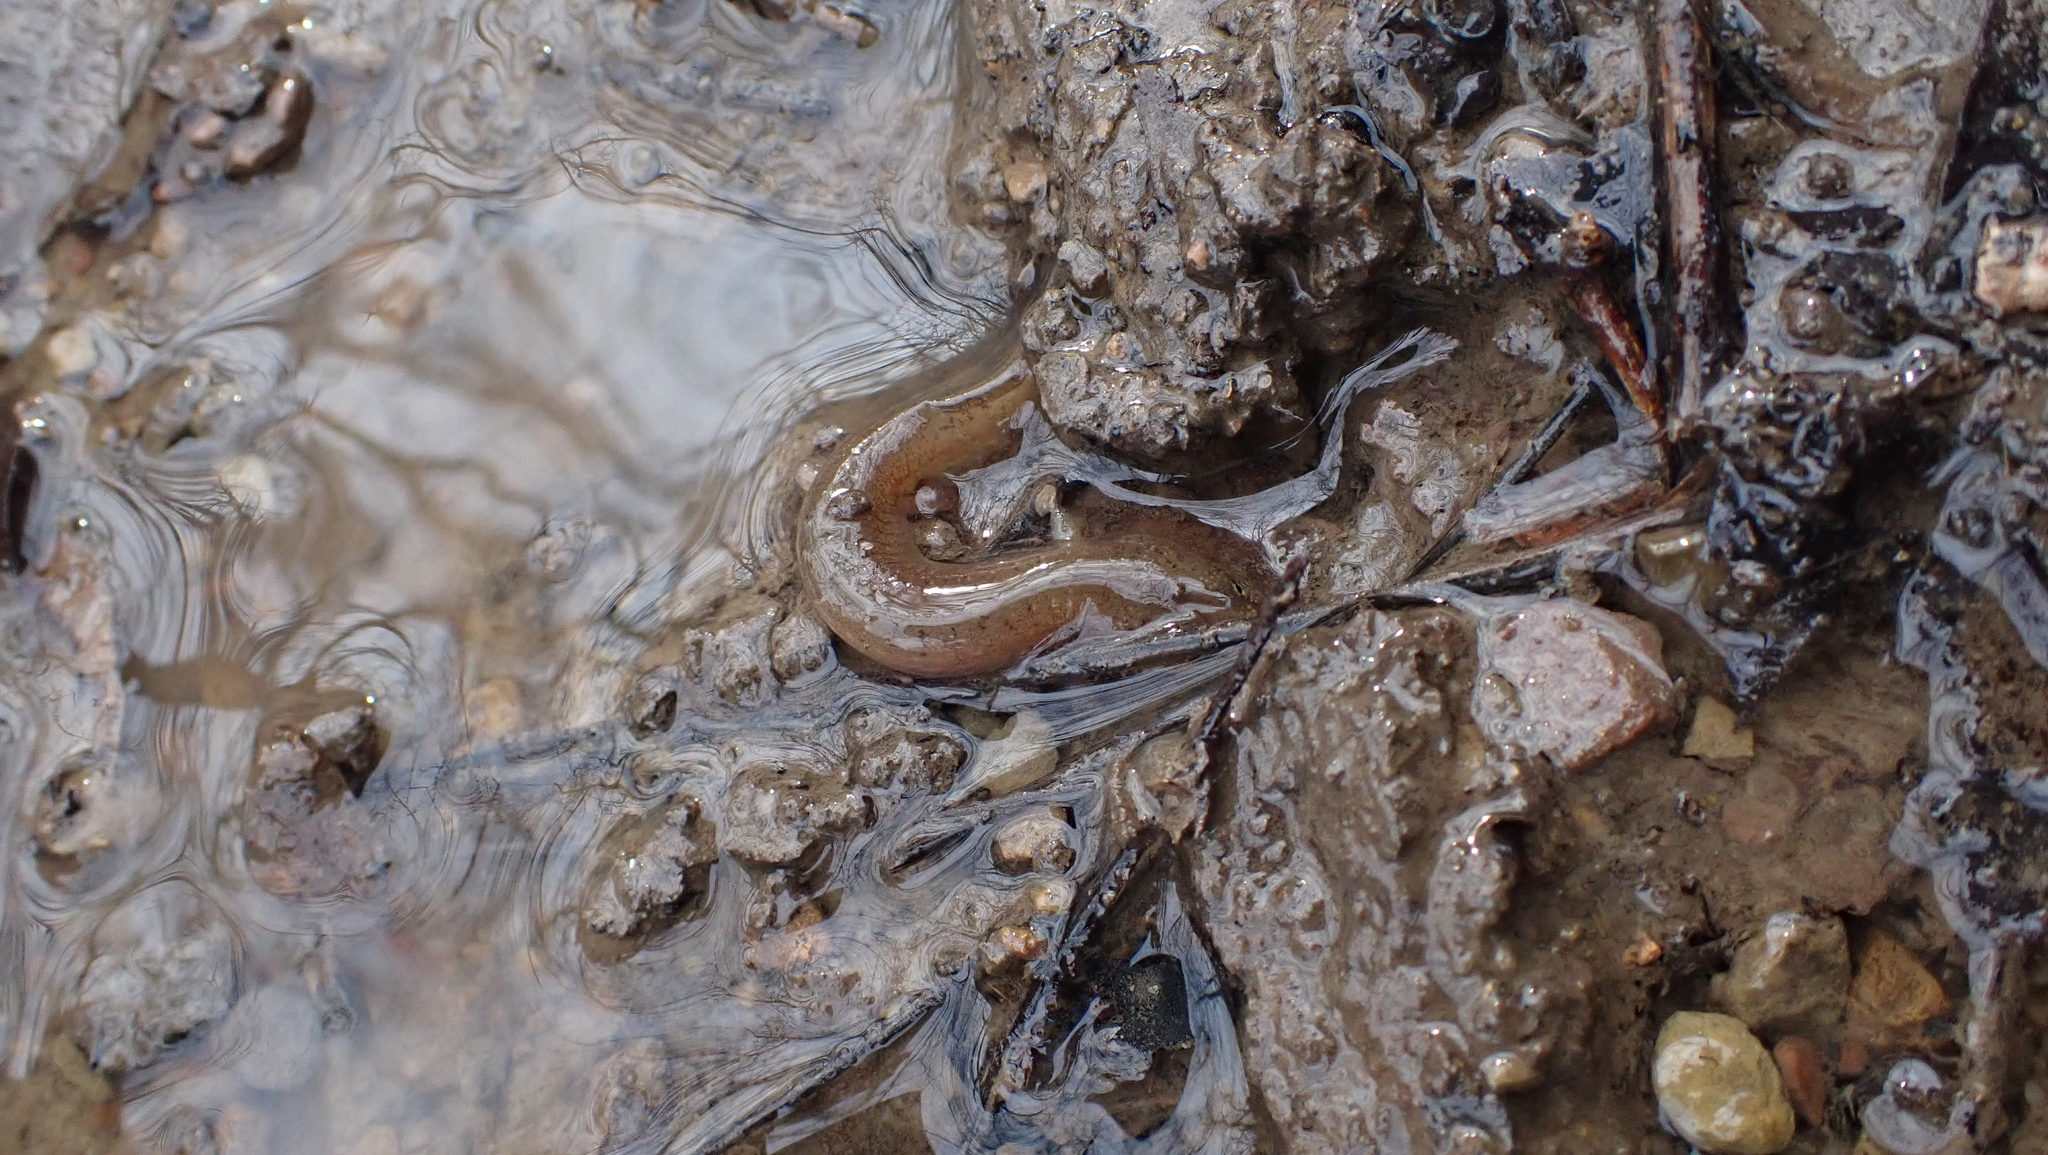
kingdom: Animalia
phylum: Chordata
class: Amphibia
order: Caudata
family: Plethodontidae
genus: Gyrinophilus
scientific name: Gyrinophilus porphyriticus
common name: Spring salamander
